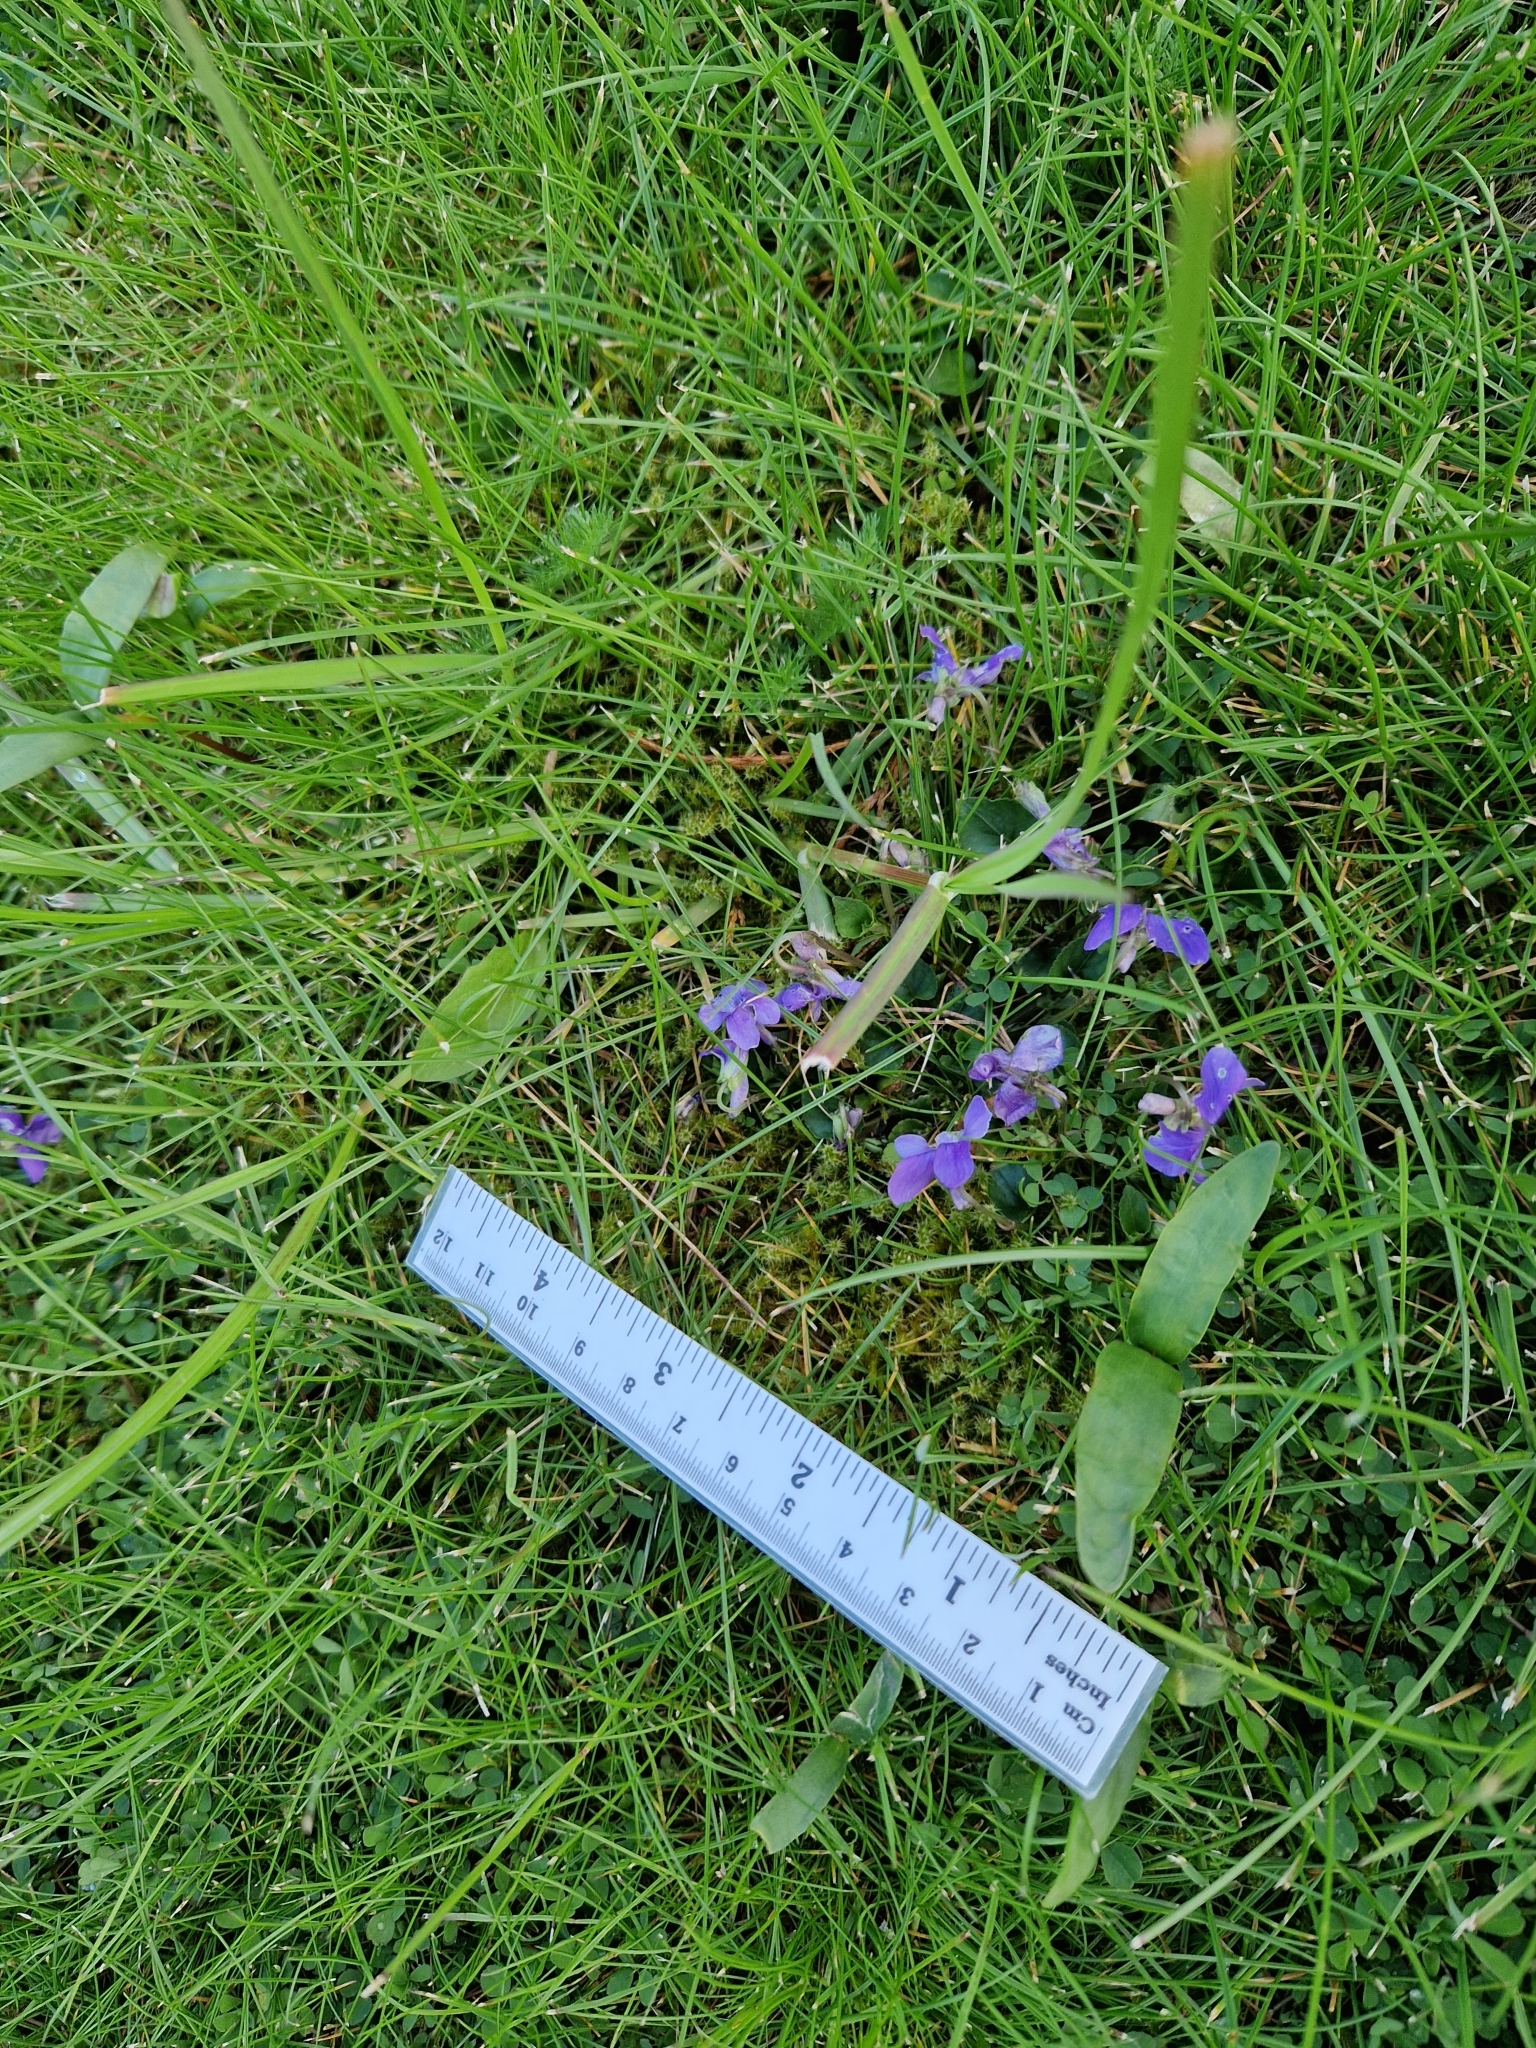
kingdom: Plantae
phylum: Tracheophyta
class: Magnoliopsida
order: Malpighiales
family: Violaceae
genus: Viola
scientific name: Viola riviniana
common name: Common dog-violet
